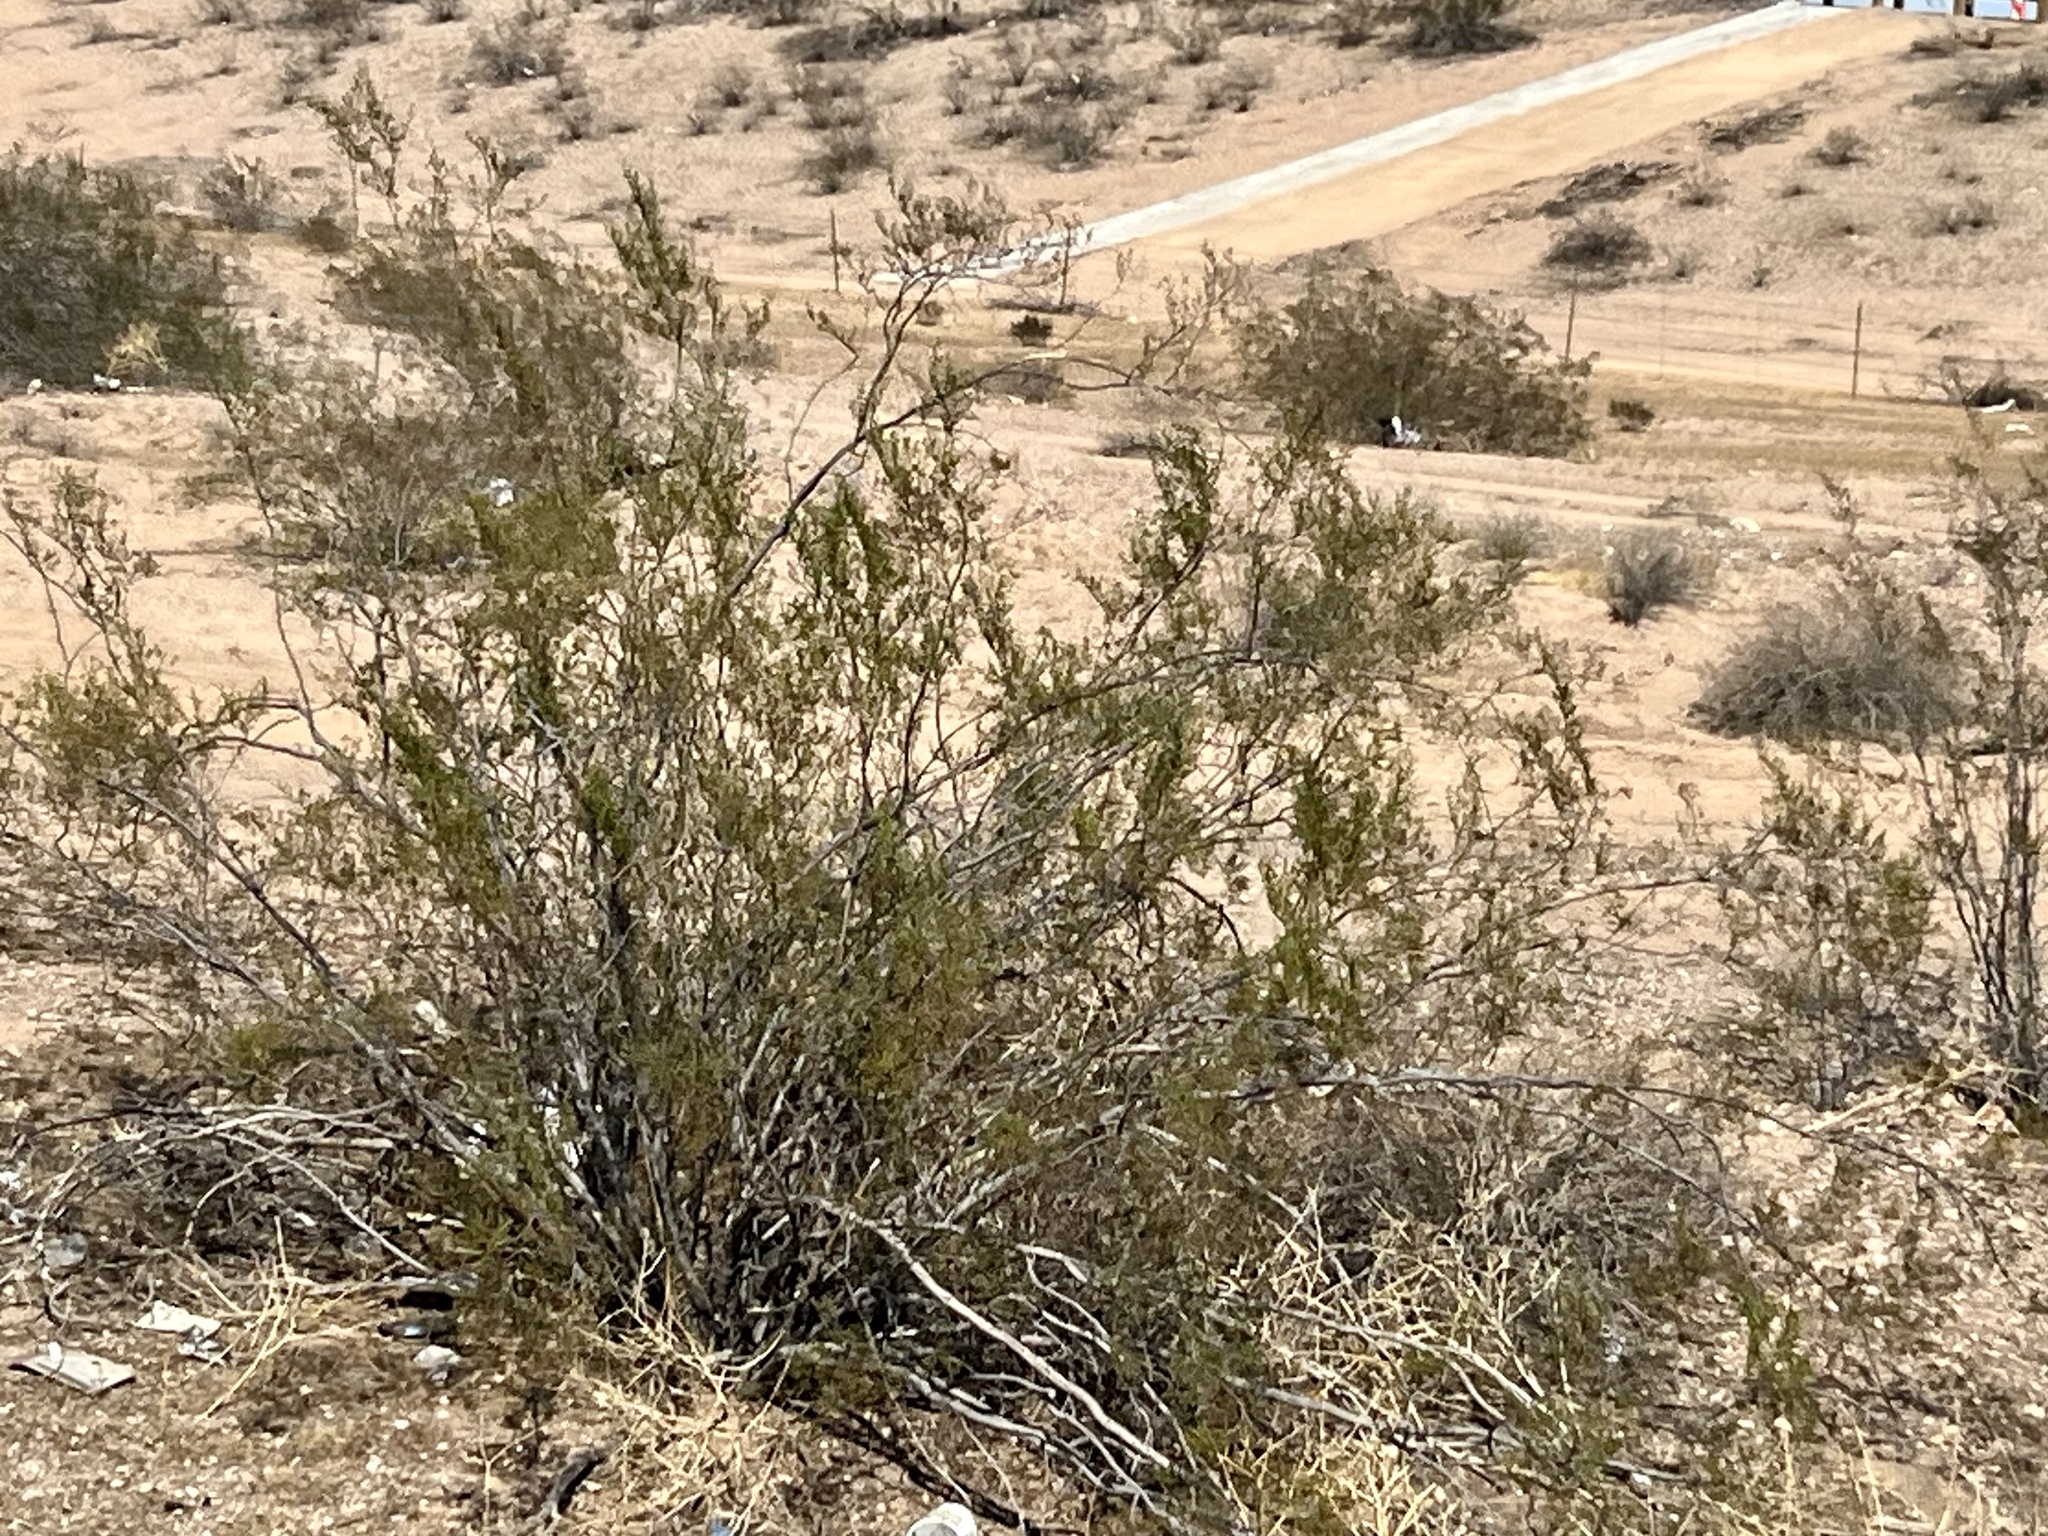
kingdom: Plantae
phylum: Tracheophyta
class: Magnoliopsida
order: Zygophyllales
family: Zygophyllaceae
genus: Larrea
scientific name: Larrea tridentata
